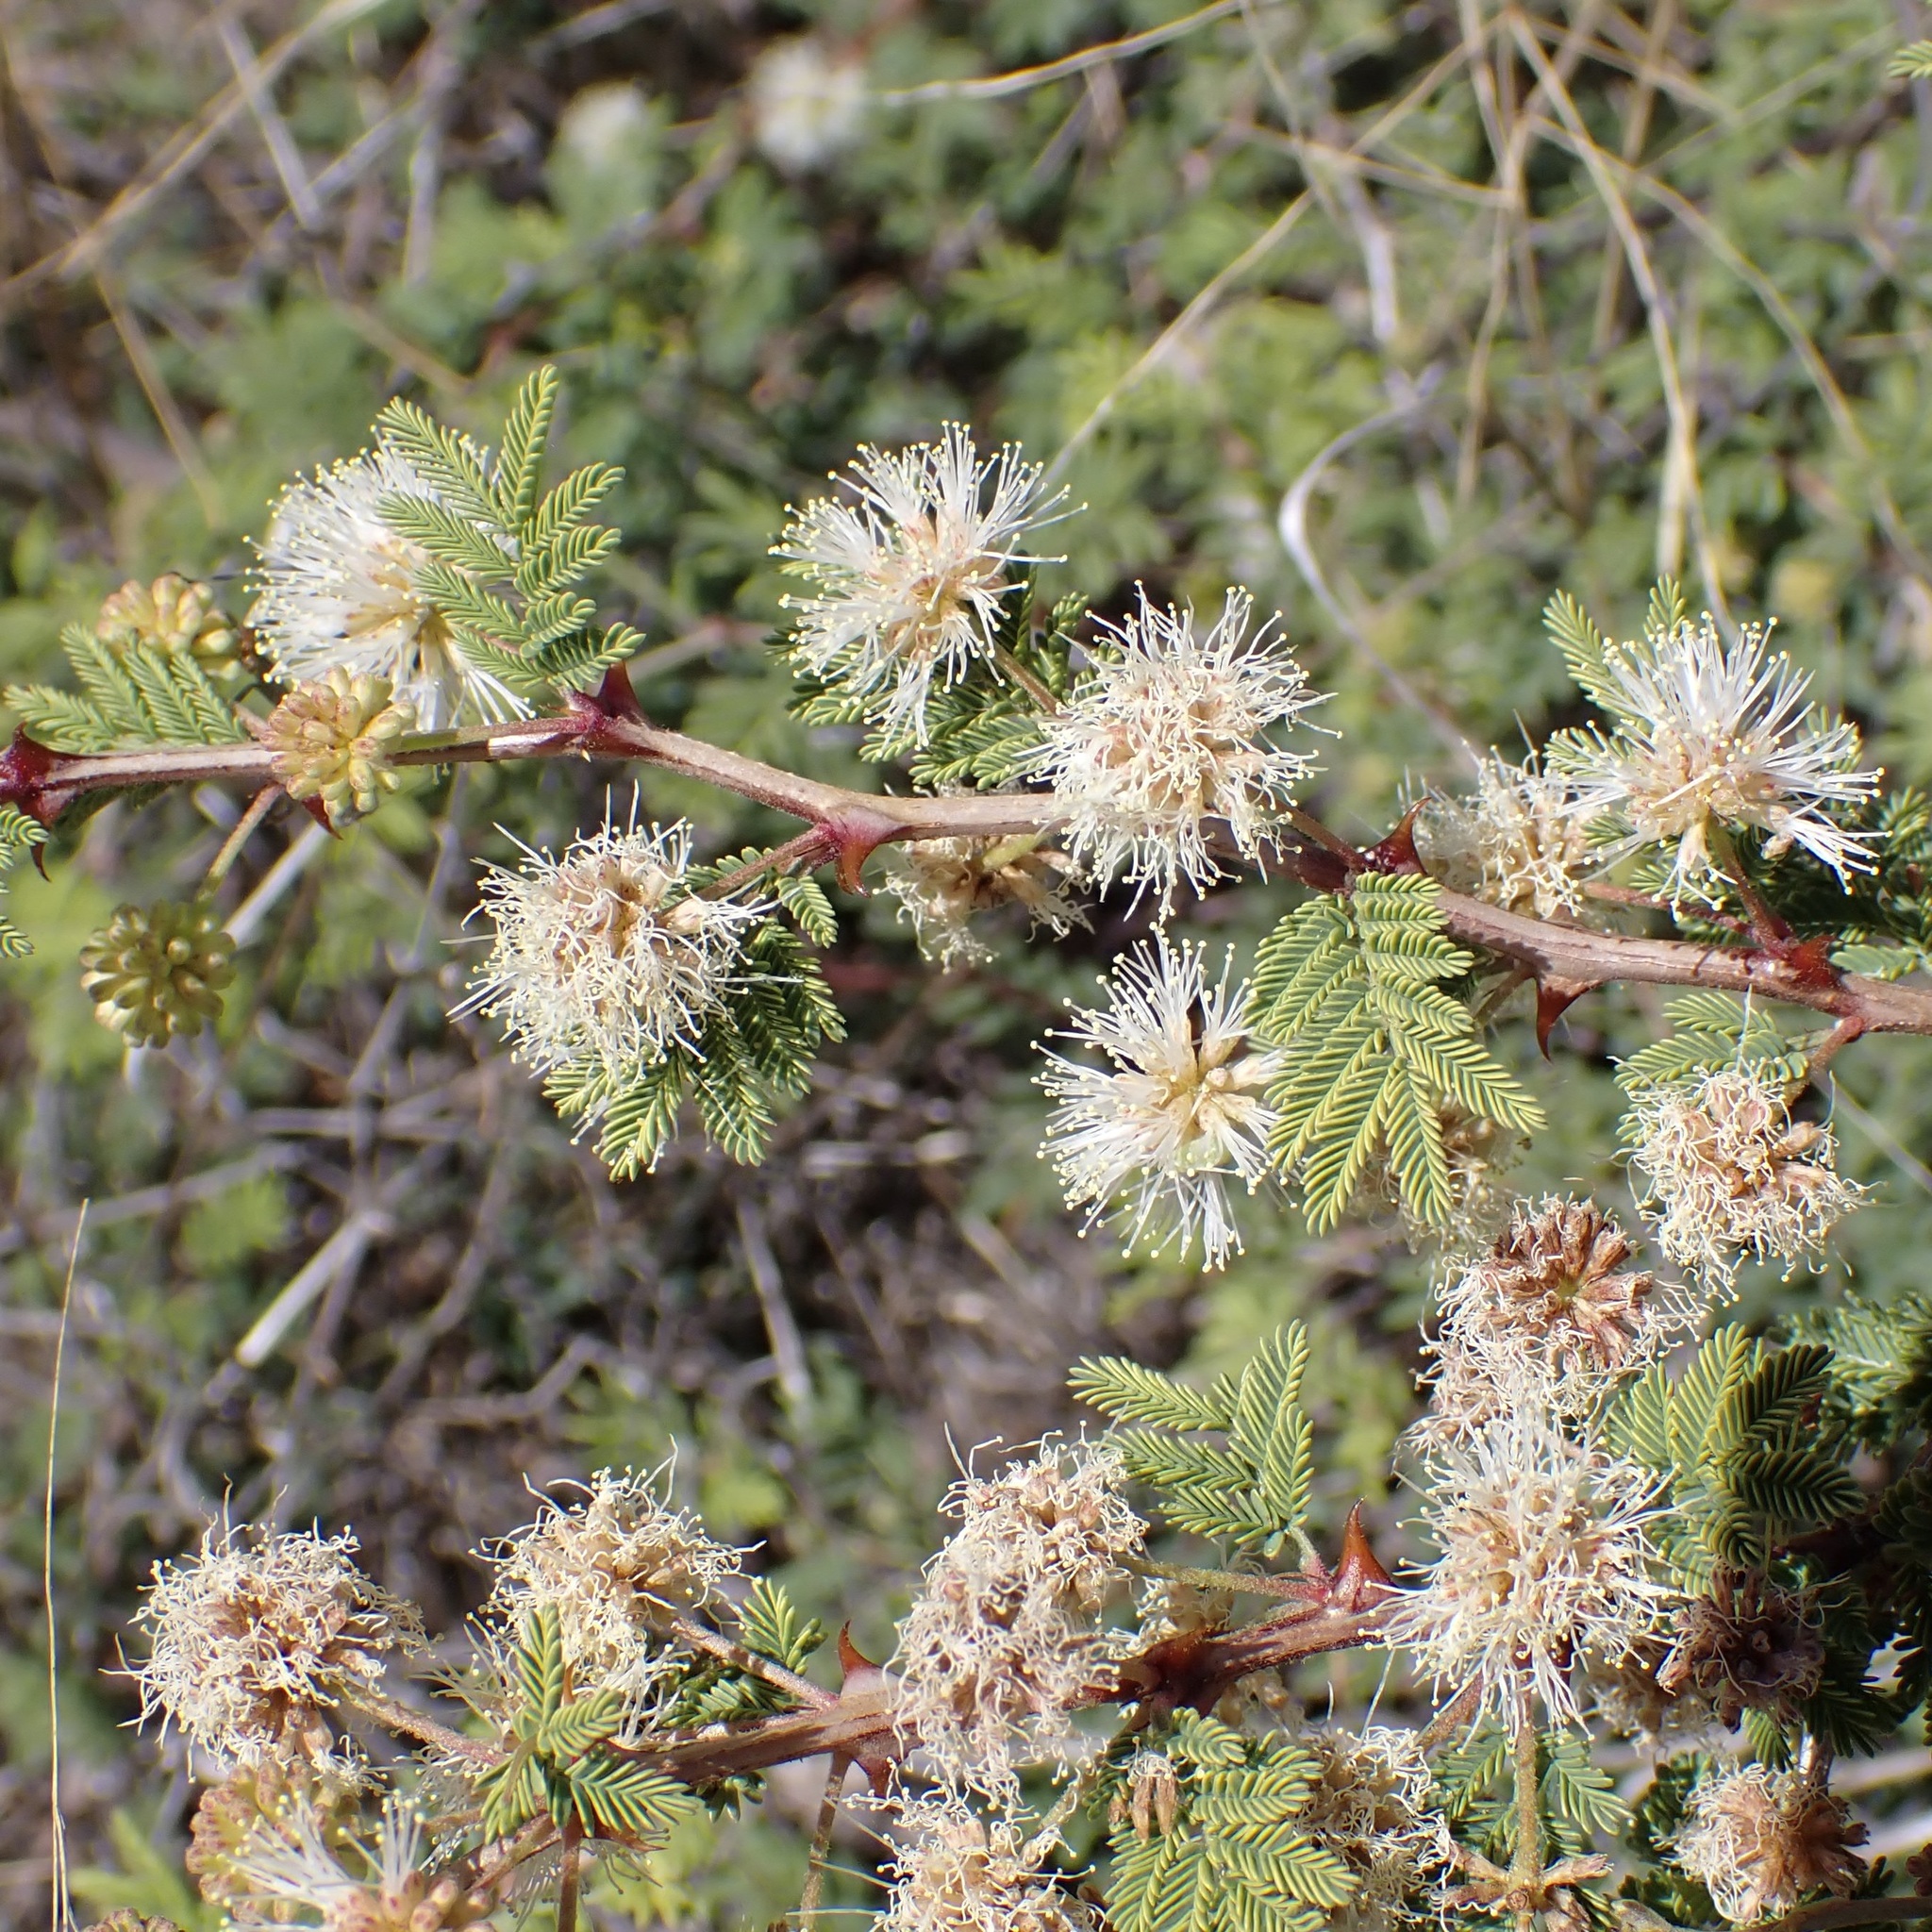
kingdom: Plantae
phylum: Tracheophyta
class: Magnoliopsida
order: Fabales
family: Fabaceae
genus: Mimosa
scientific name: Mimosa biuncifera
